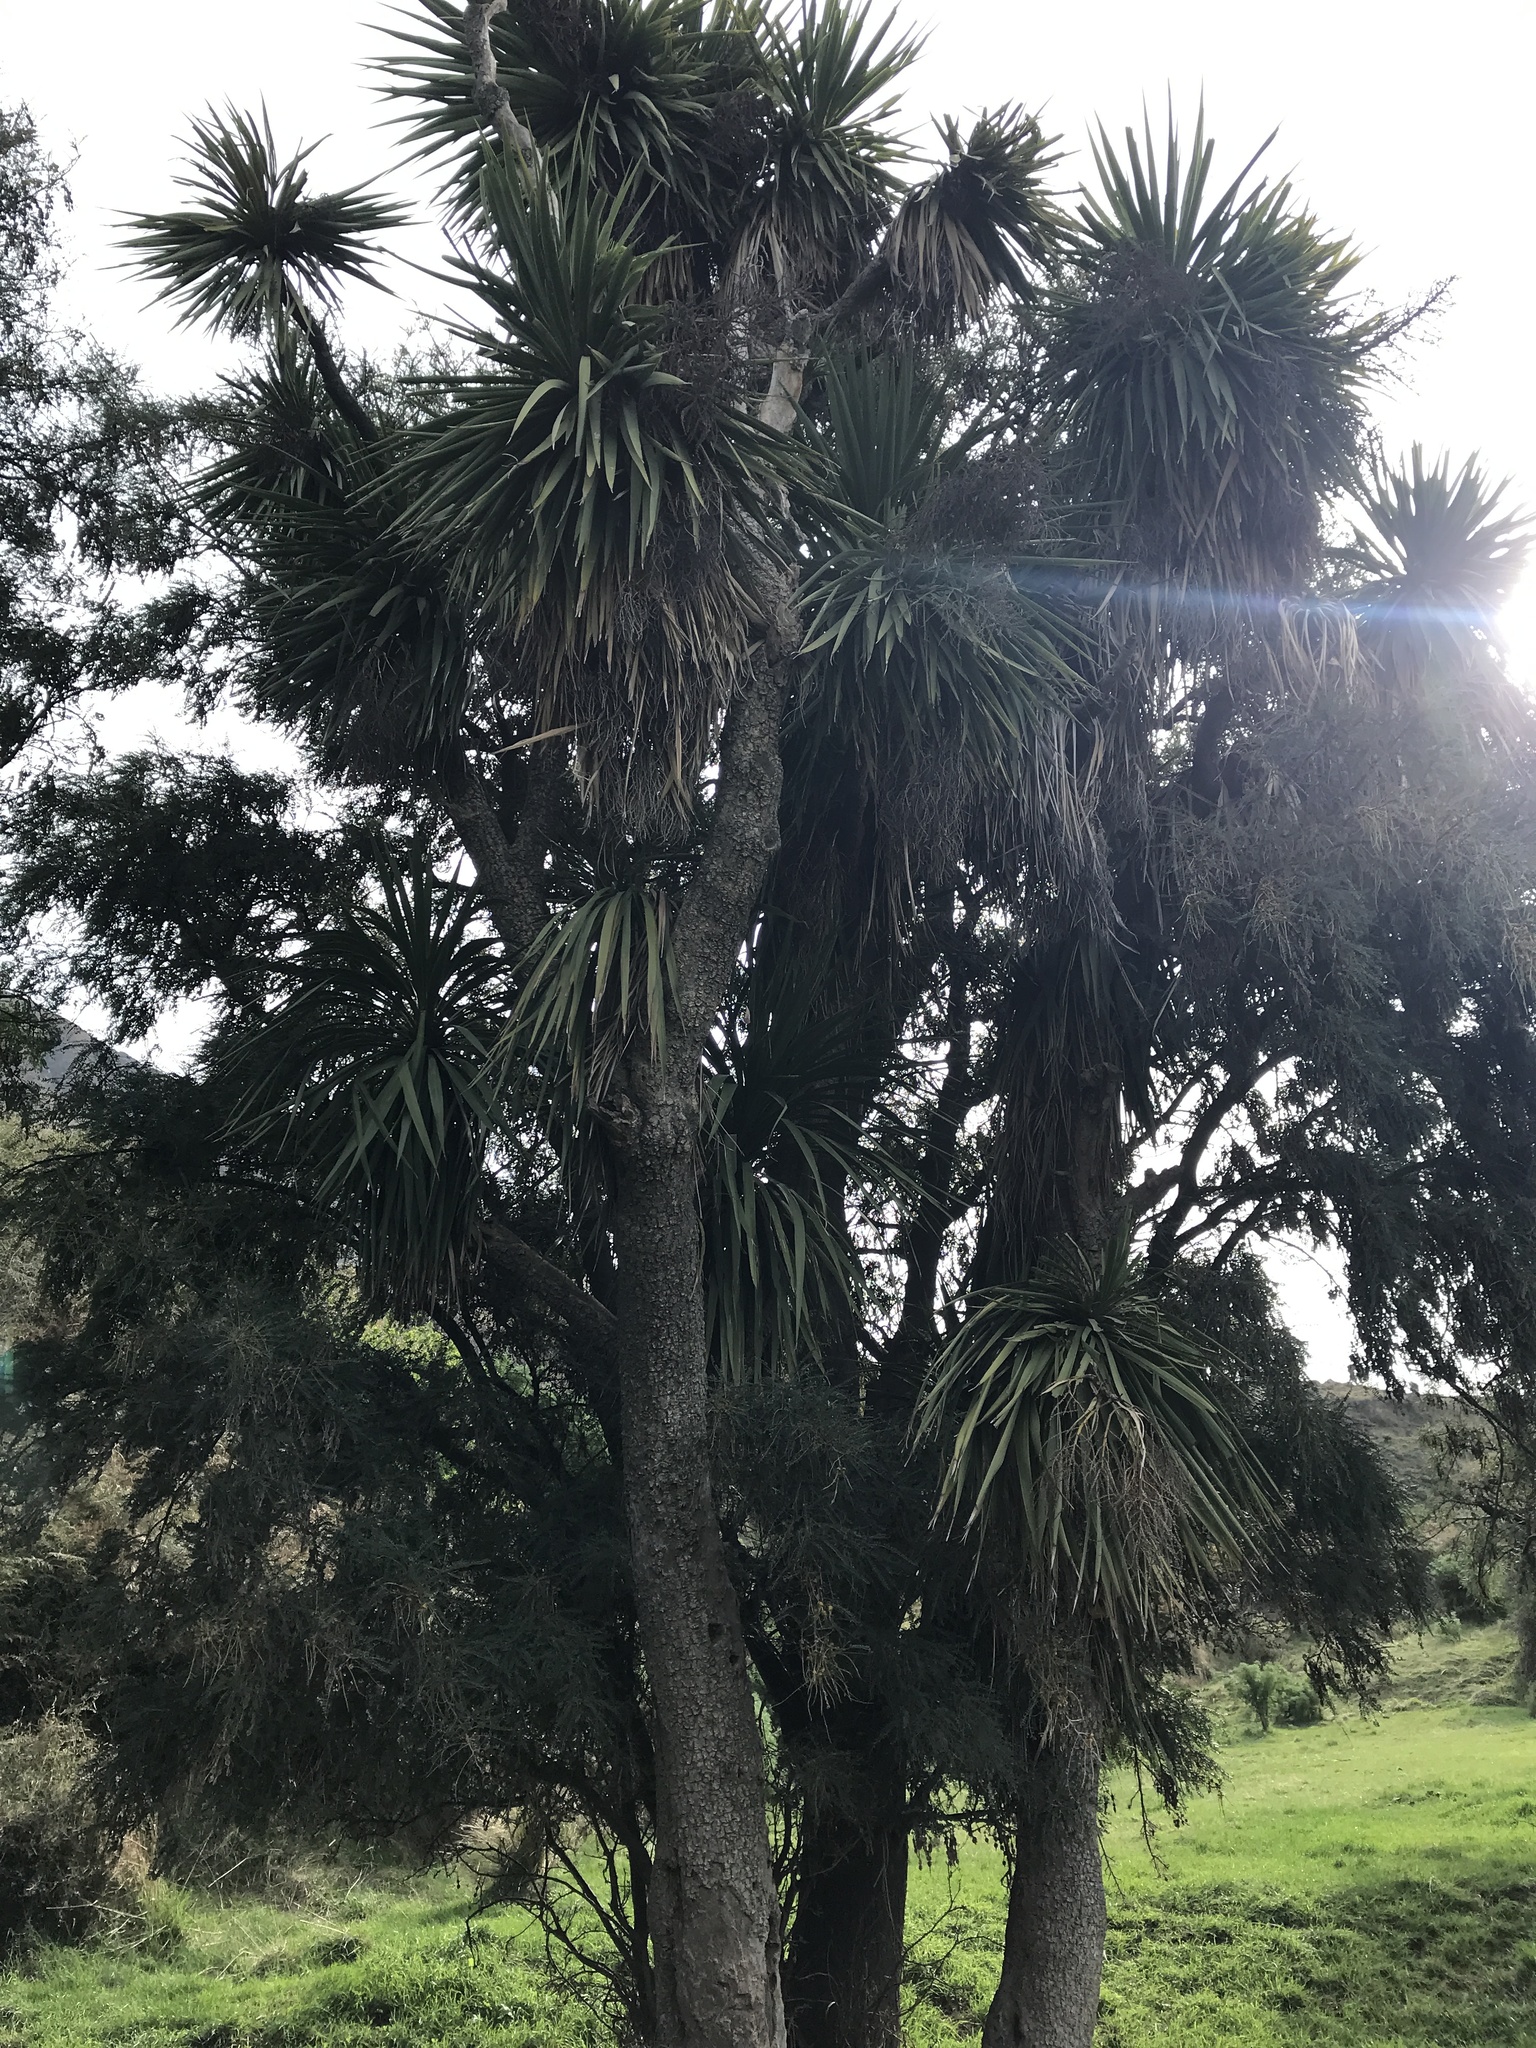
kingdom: Plantae
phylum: Tracheophyta
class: Liliopsida
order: Asparagales
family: Asparagaceae
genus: Cordyline
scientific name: Cordyline australis
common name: Cabbage-palm
